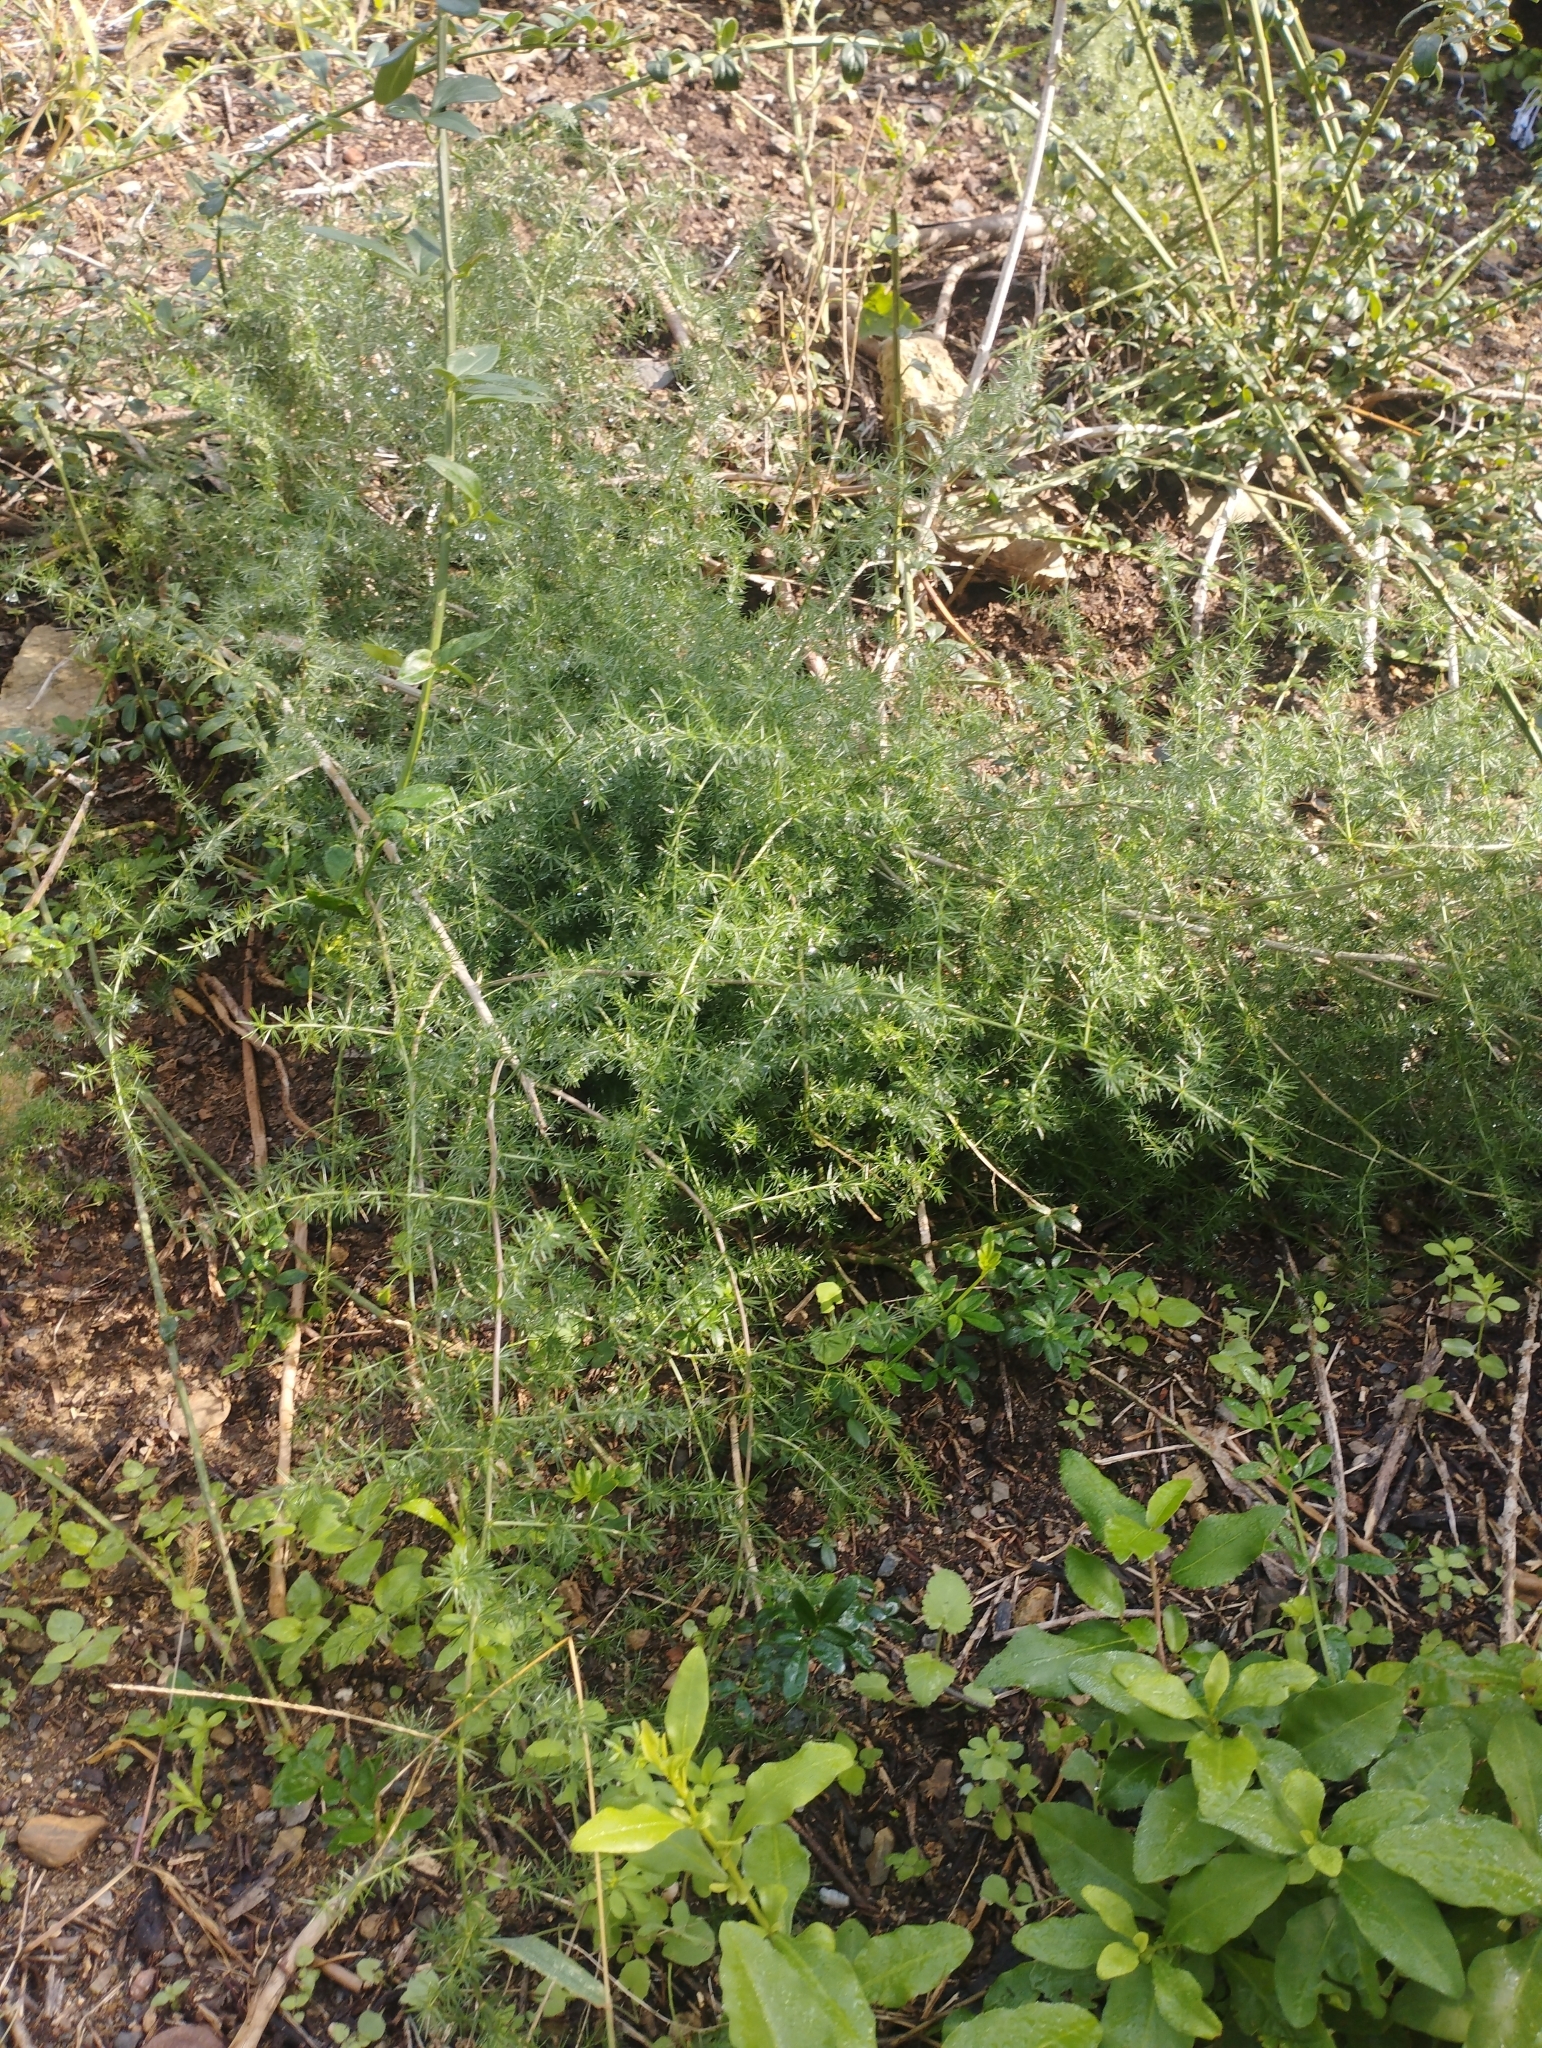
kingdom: Plantae
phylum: Tracheophyta
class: Liliopsida
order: Asparagales
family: Asparagaceae
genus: Asparagus
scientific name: Asparagus acutifolius
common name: Wild asparagus
